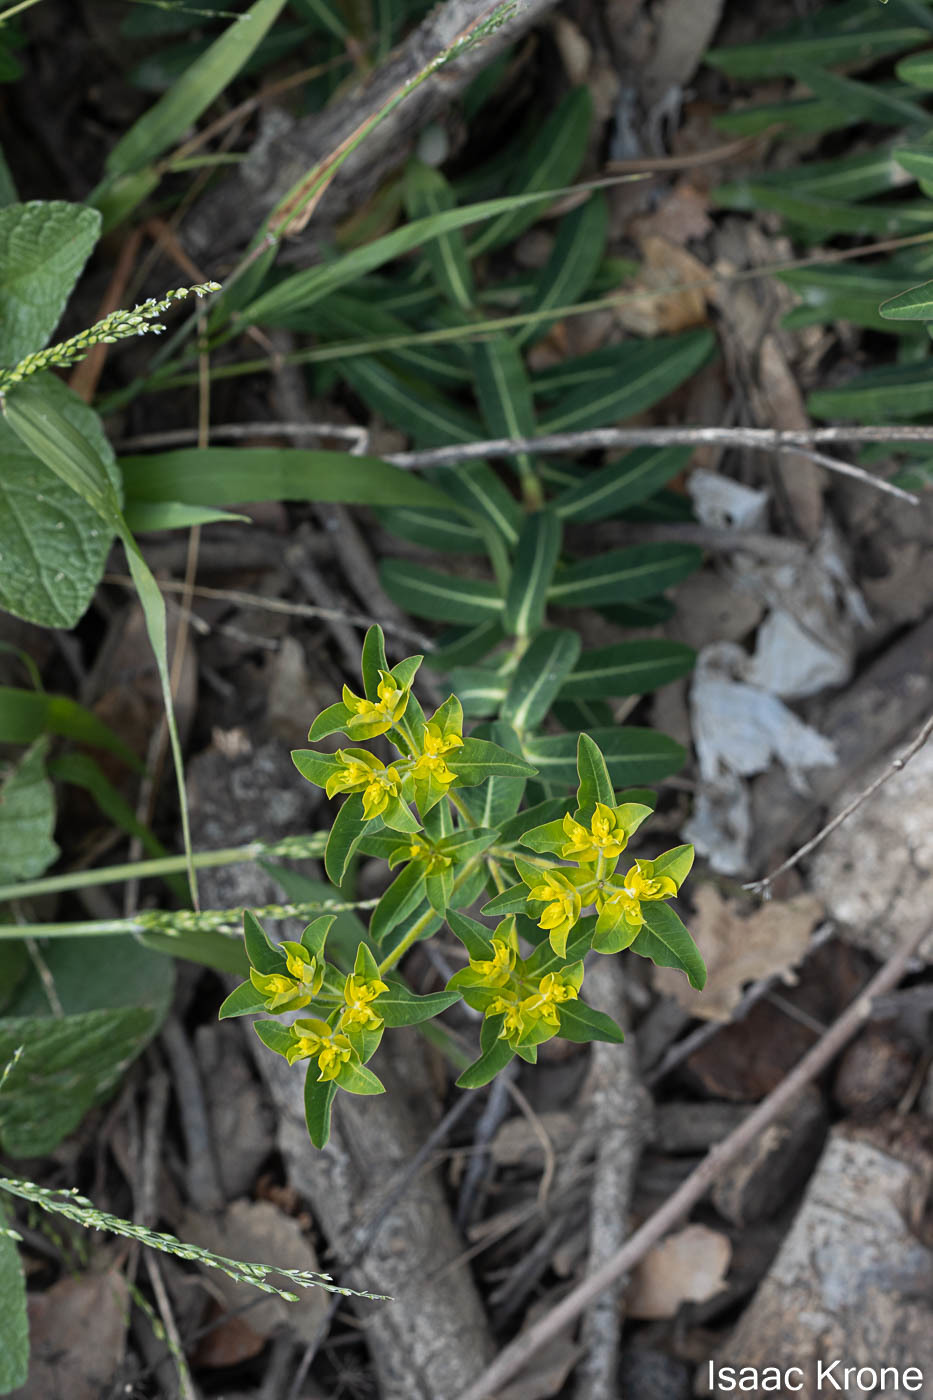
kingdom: Plantae
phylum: Tracheophyta
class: Magnoliopsida
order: Malpighiales
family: Euphorbiaceae
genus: Euphorbia
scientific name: Euphorbia oblongata
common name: Balkan spurge
